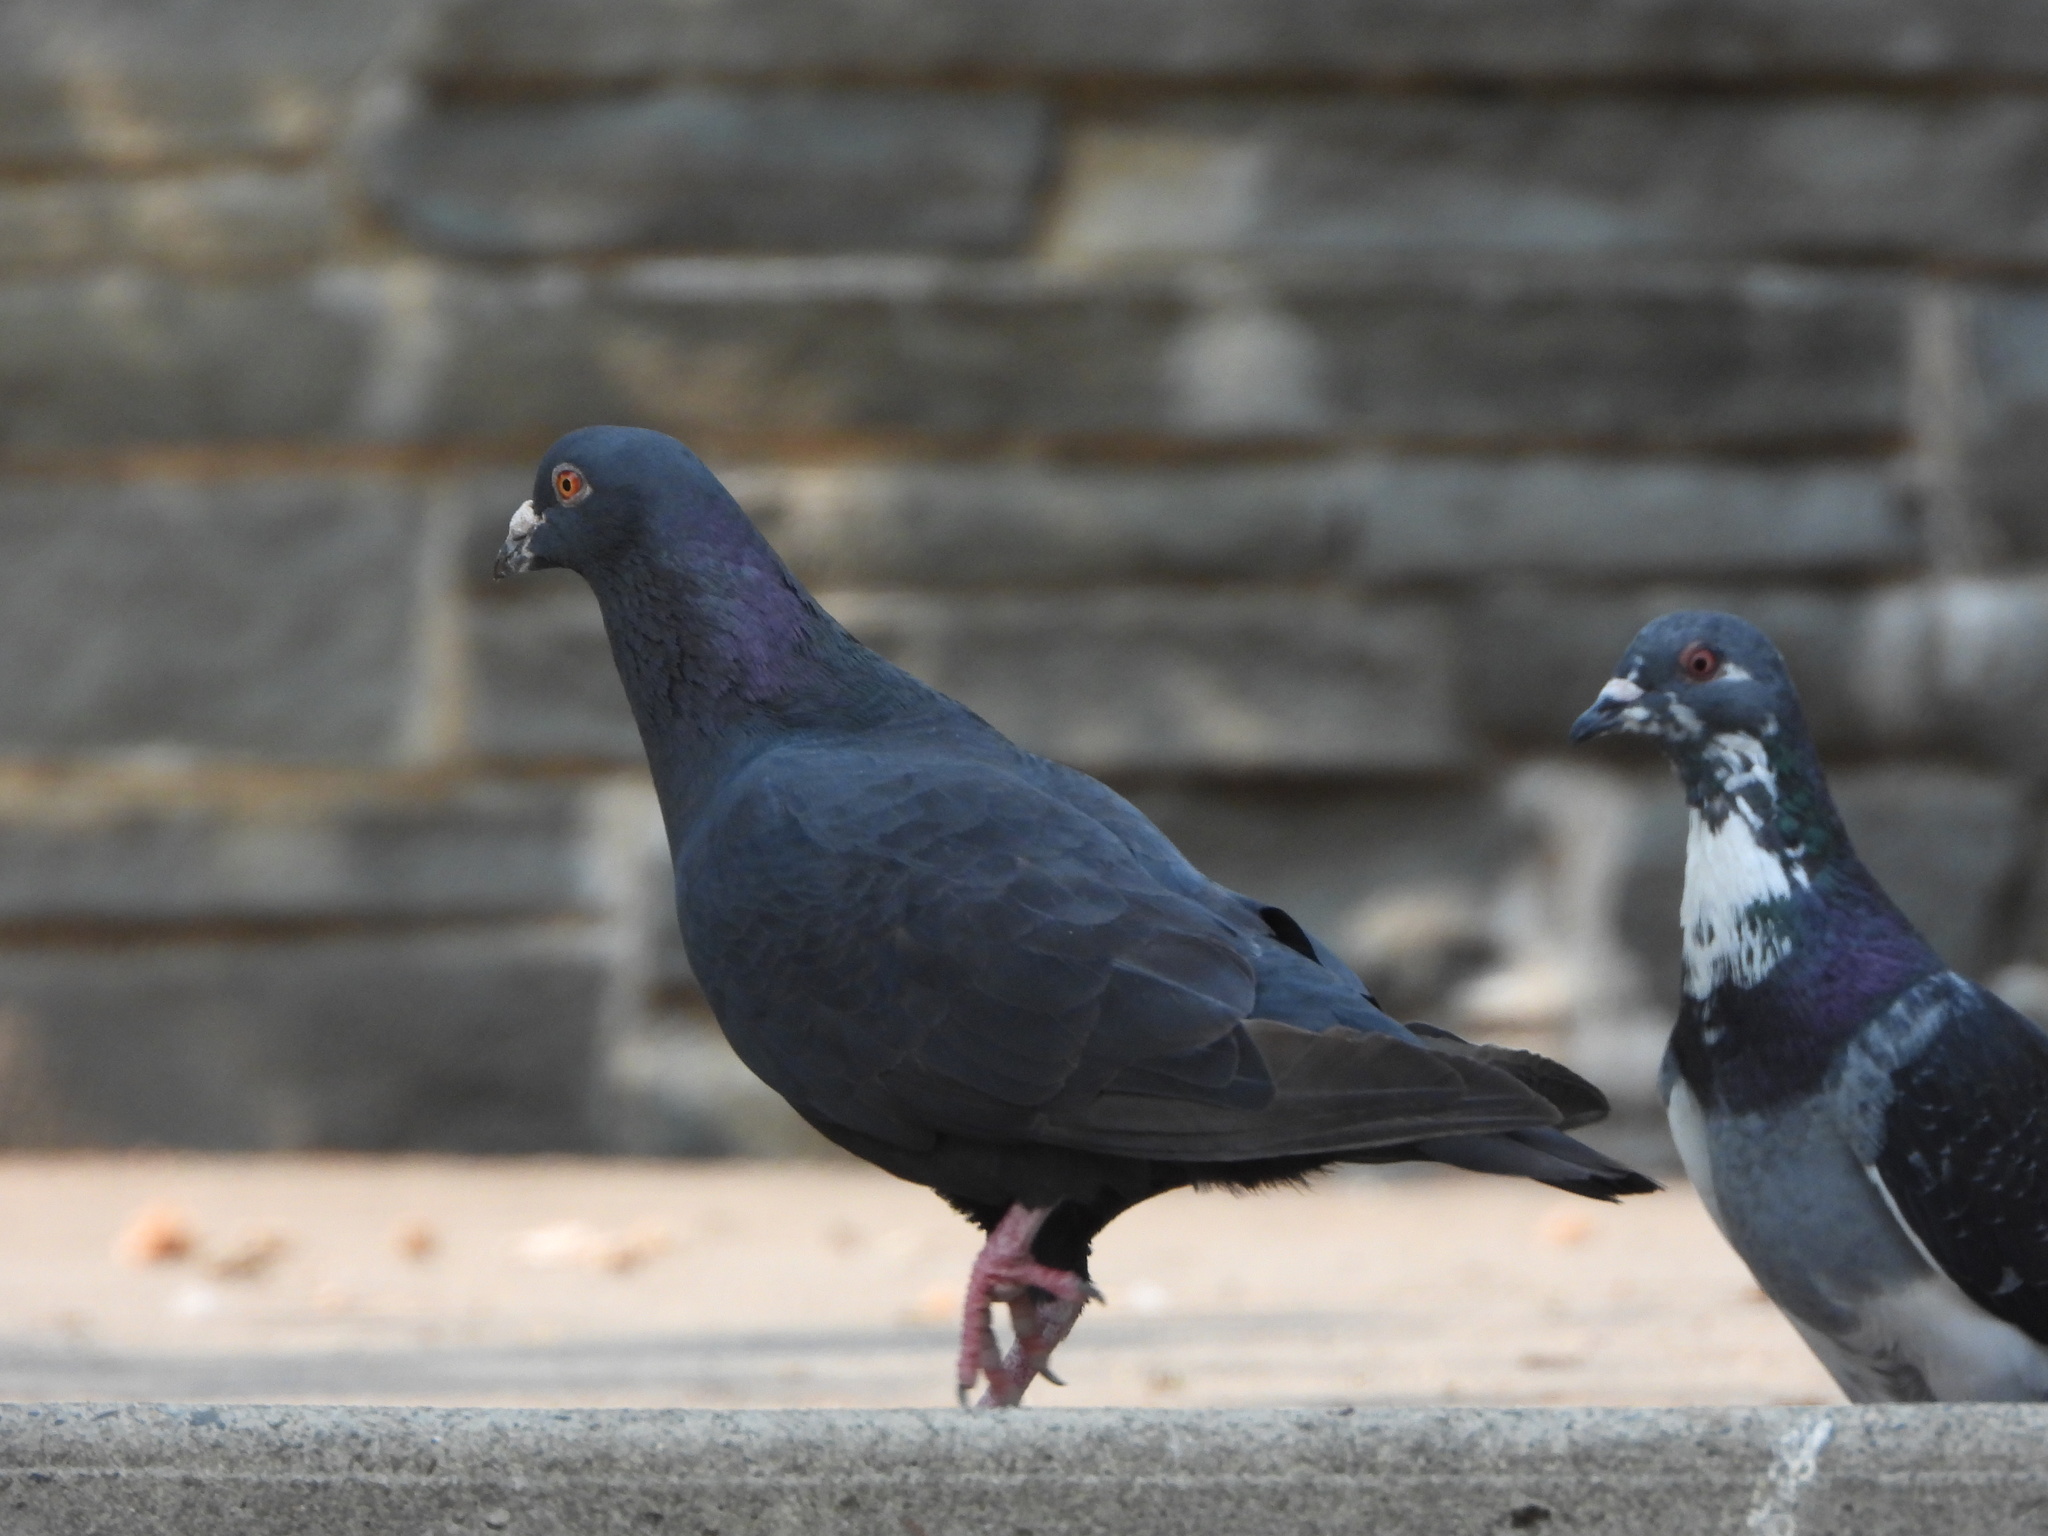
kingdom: Animalia
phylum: Chordata
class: Aves
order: Columbiformes
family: Columbidae
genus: Columba
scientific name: Columba livia
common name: Rock pigeon
